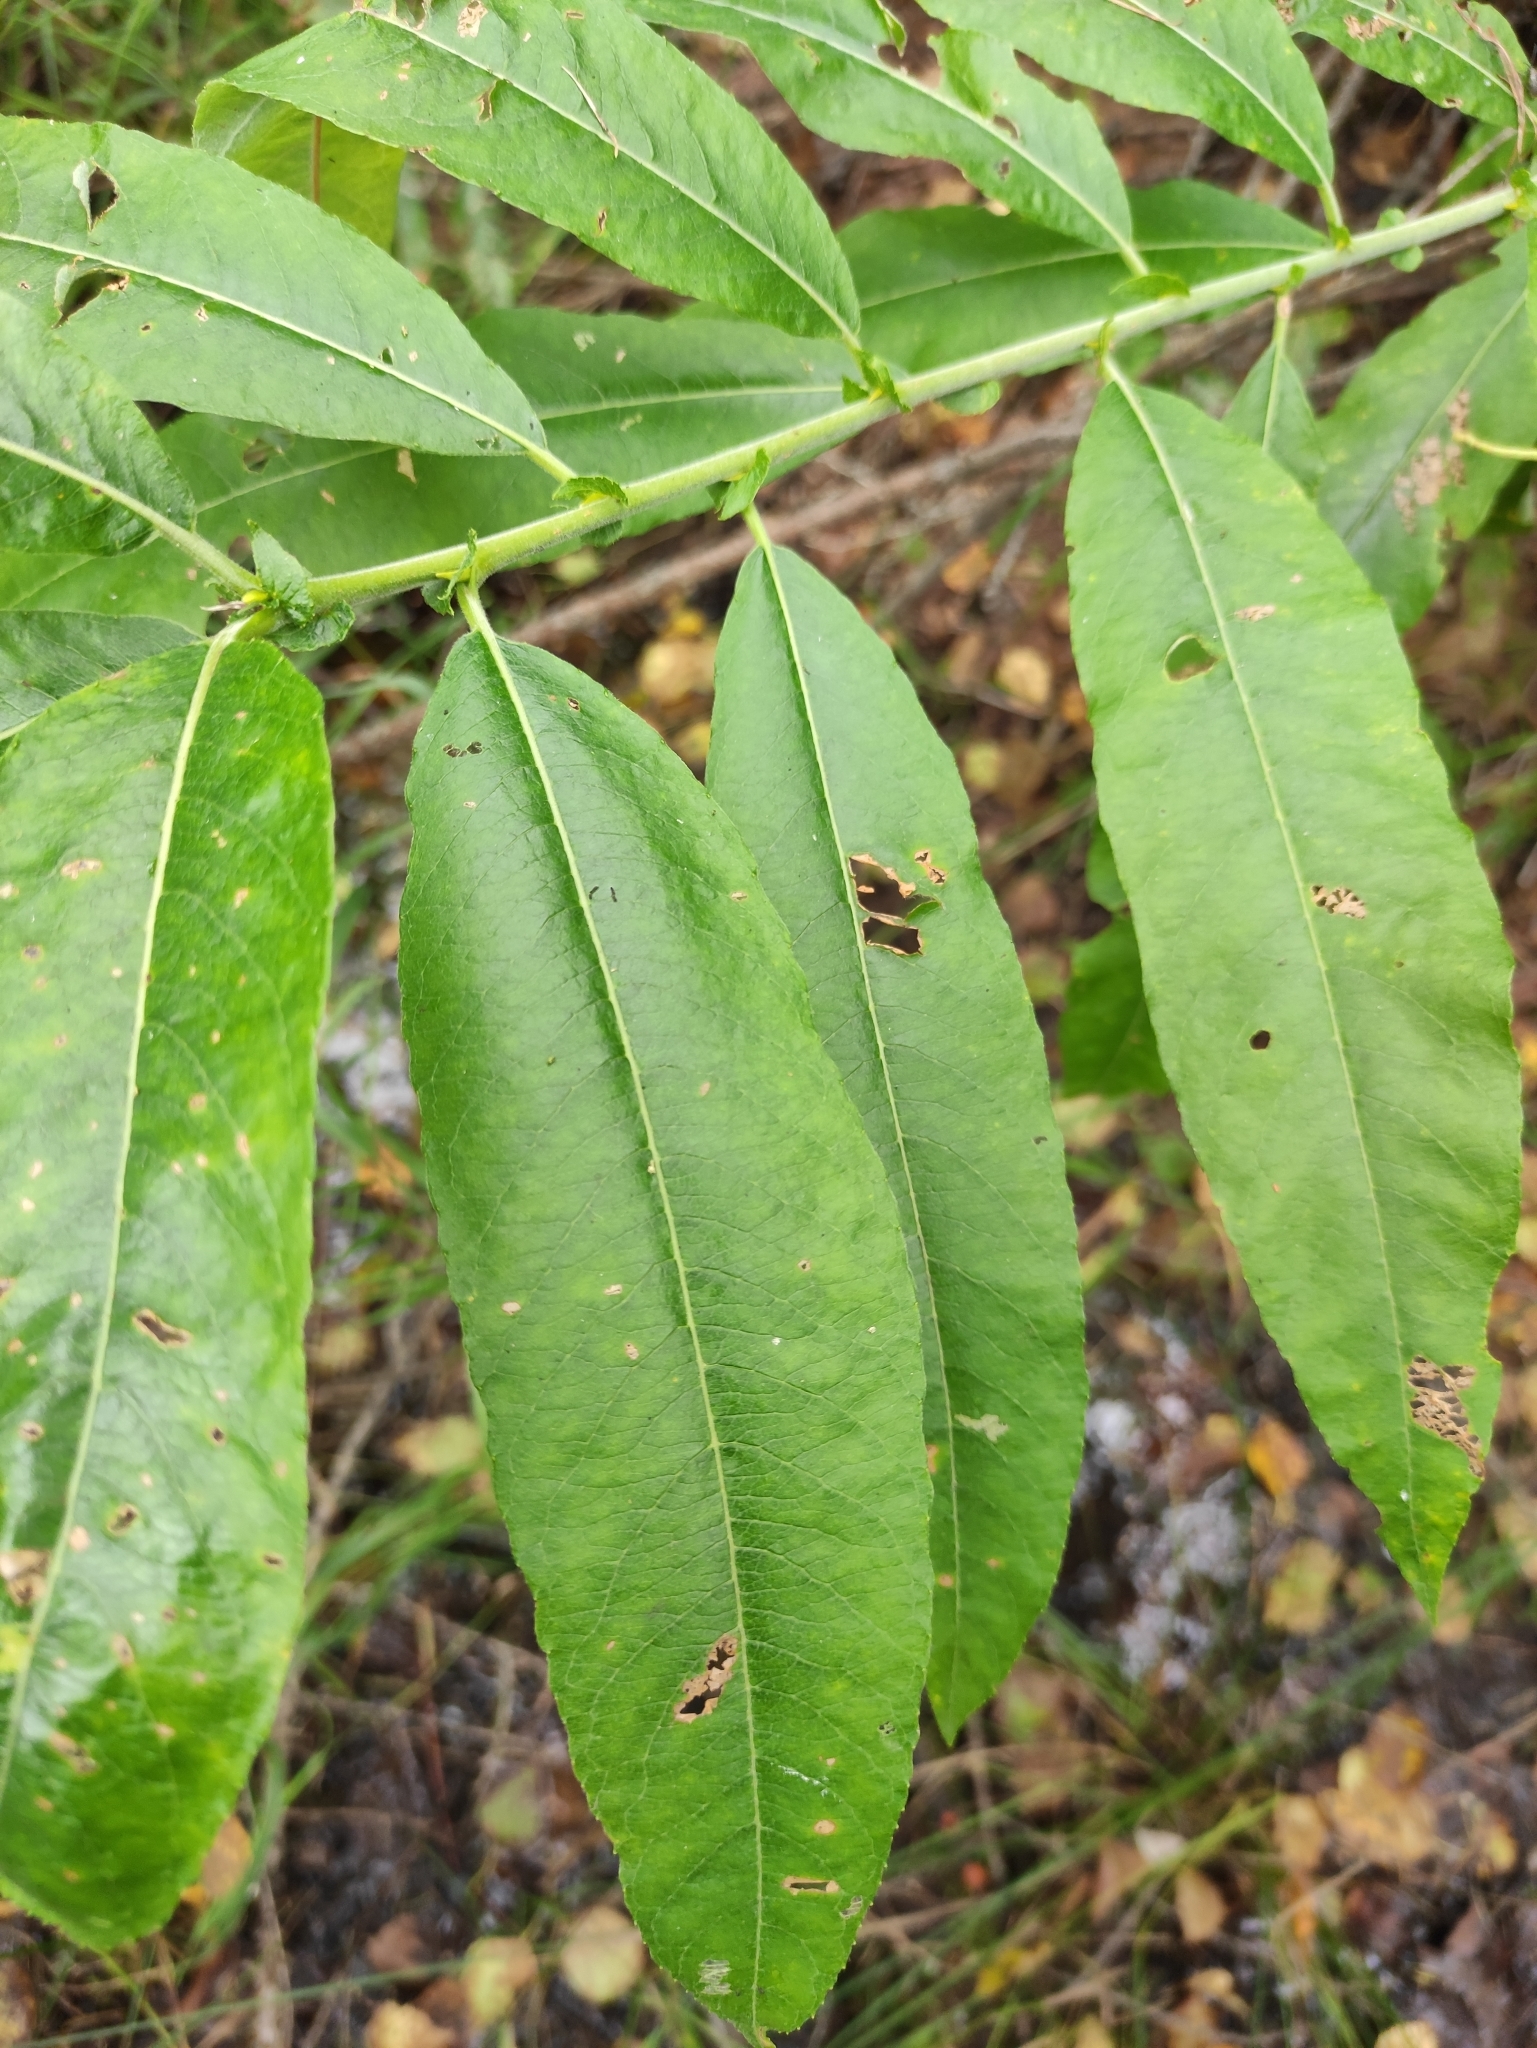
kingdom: Plantae
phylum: Tracheophyta
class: Magnoliopsida
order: Malpighiales
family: Salicaceae
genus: Salix
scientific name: Salix gmelinii
